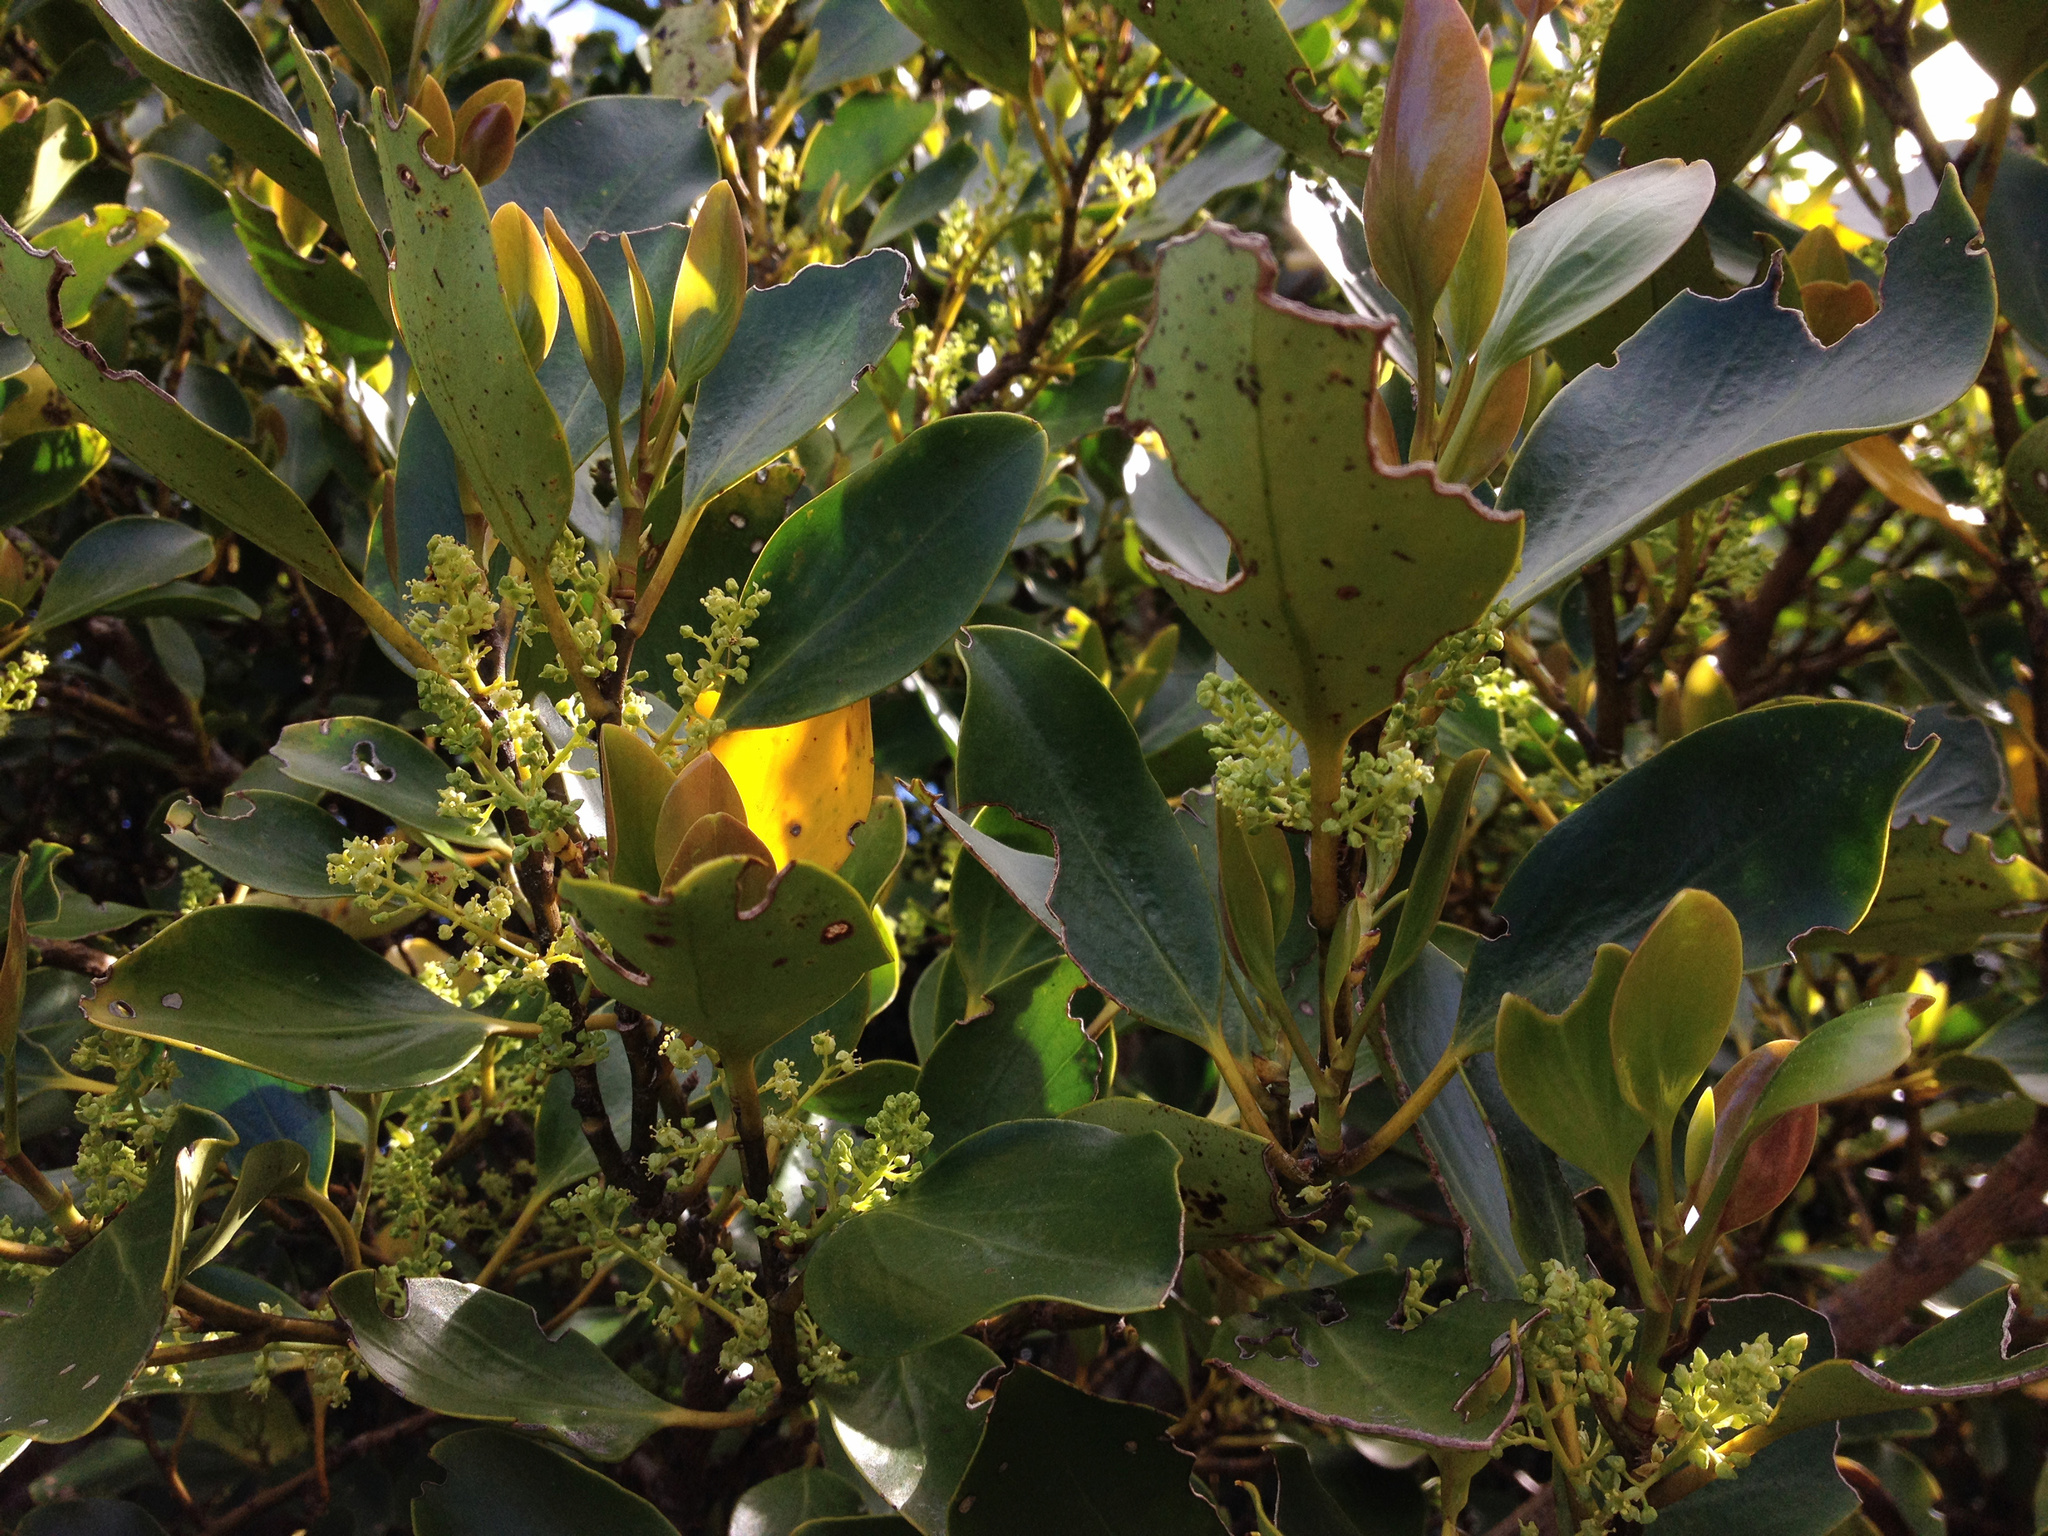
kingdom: Plantae
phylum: Tracheophyta
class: Magnoliopsida
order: Apiales
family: Griseliniaceae
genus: Griselinia
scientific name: Griselinia littoralis
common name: New zealand broadleaf
